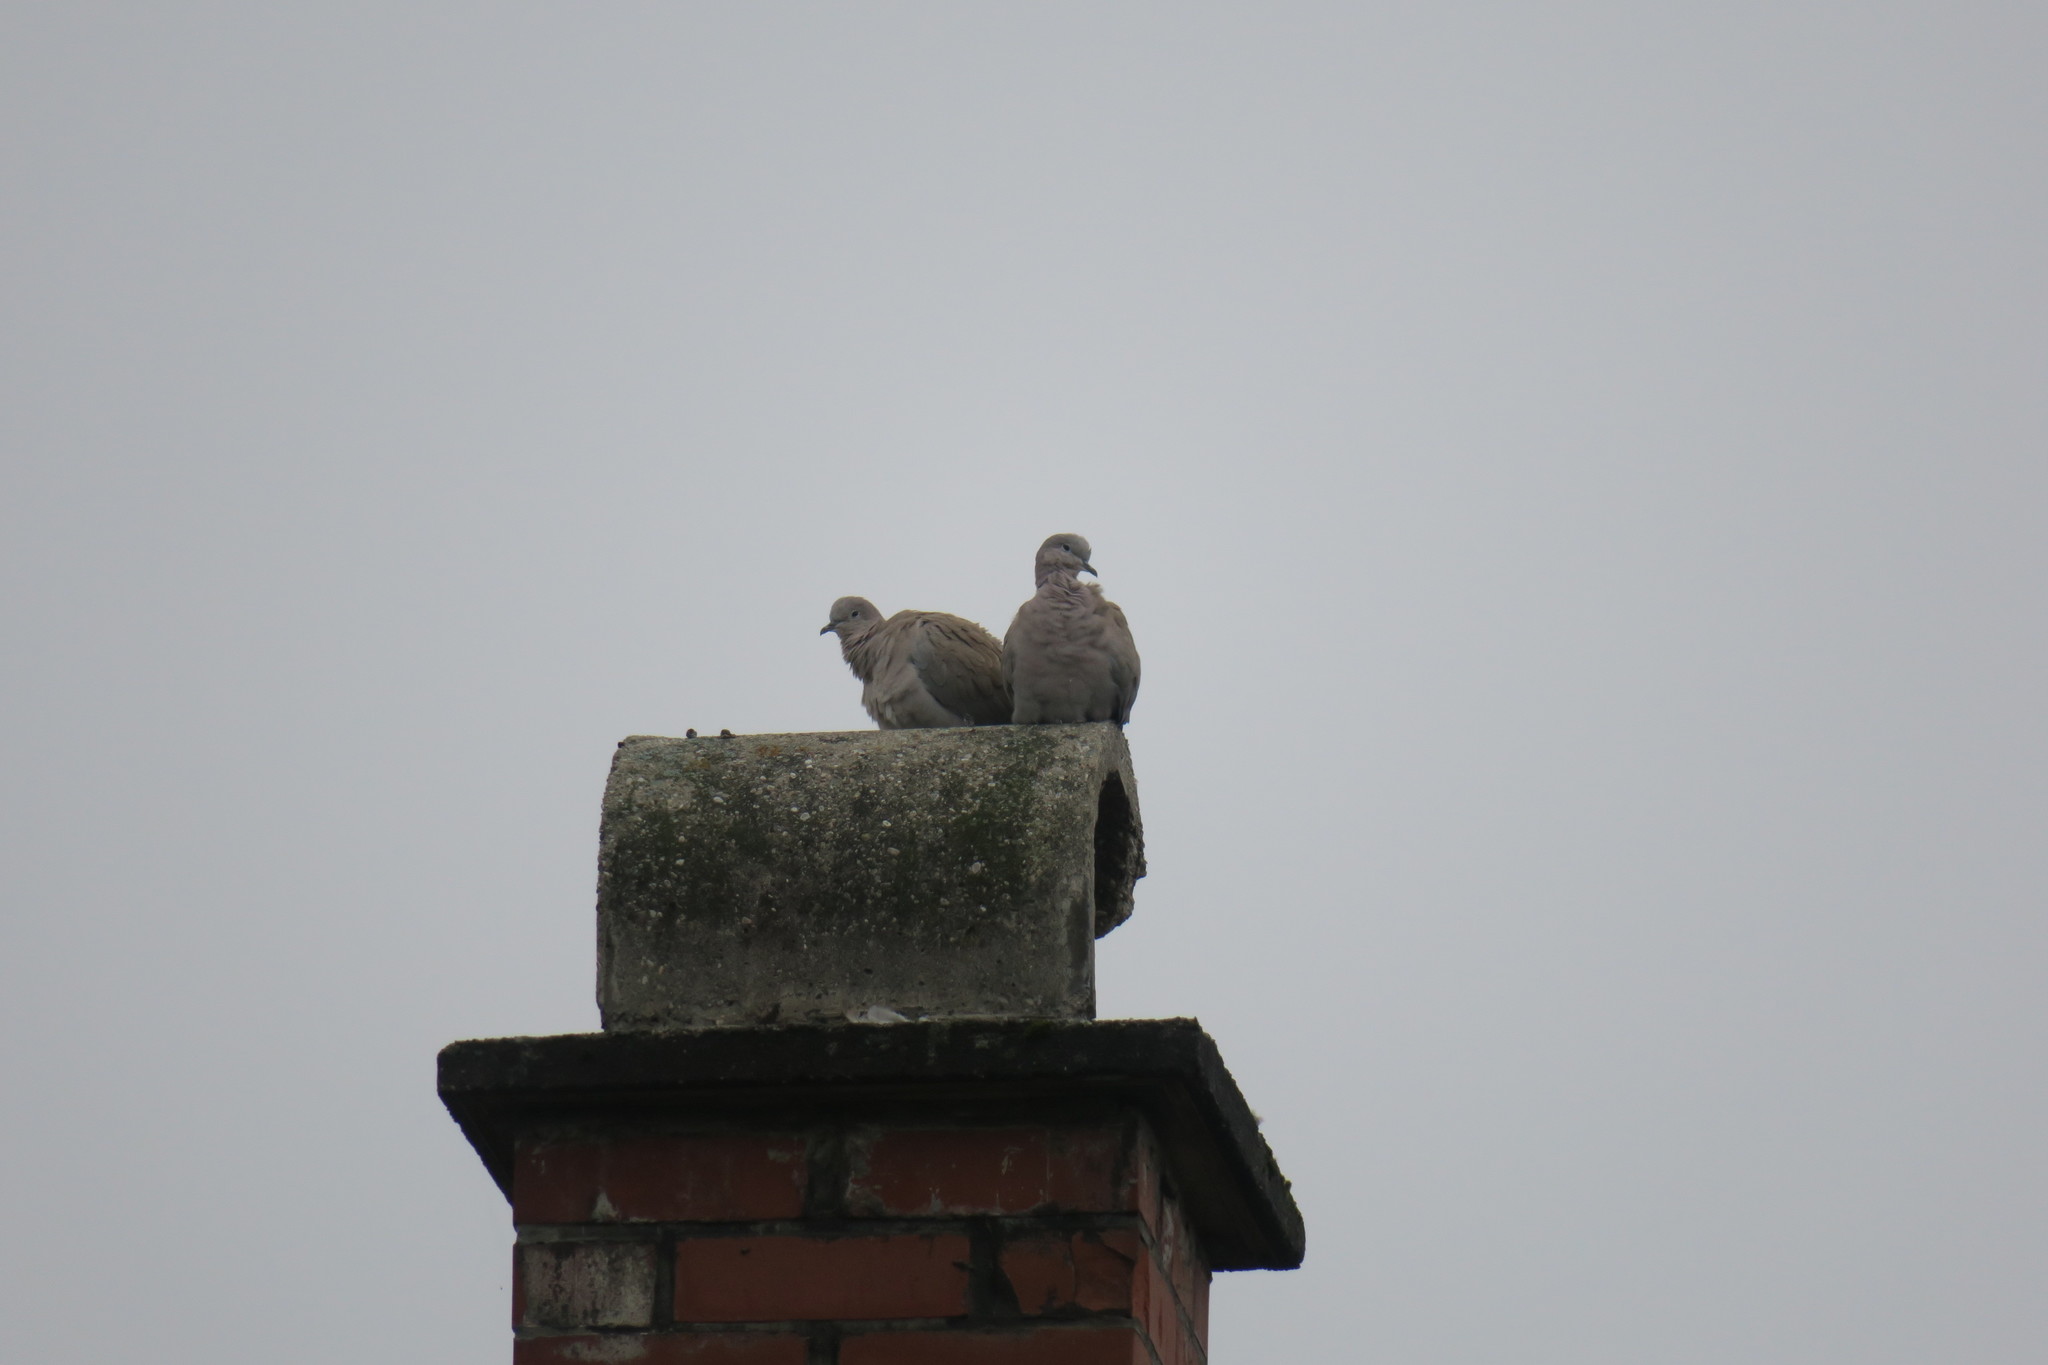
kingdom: Animalia
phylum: Chordata
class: Aves
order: Columbiformes
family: Columbidae
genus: Streptopelia
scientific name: Streptopelia decaocto
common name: Eurasian collared dove
